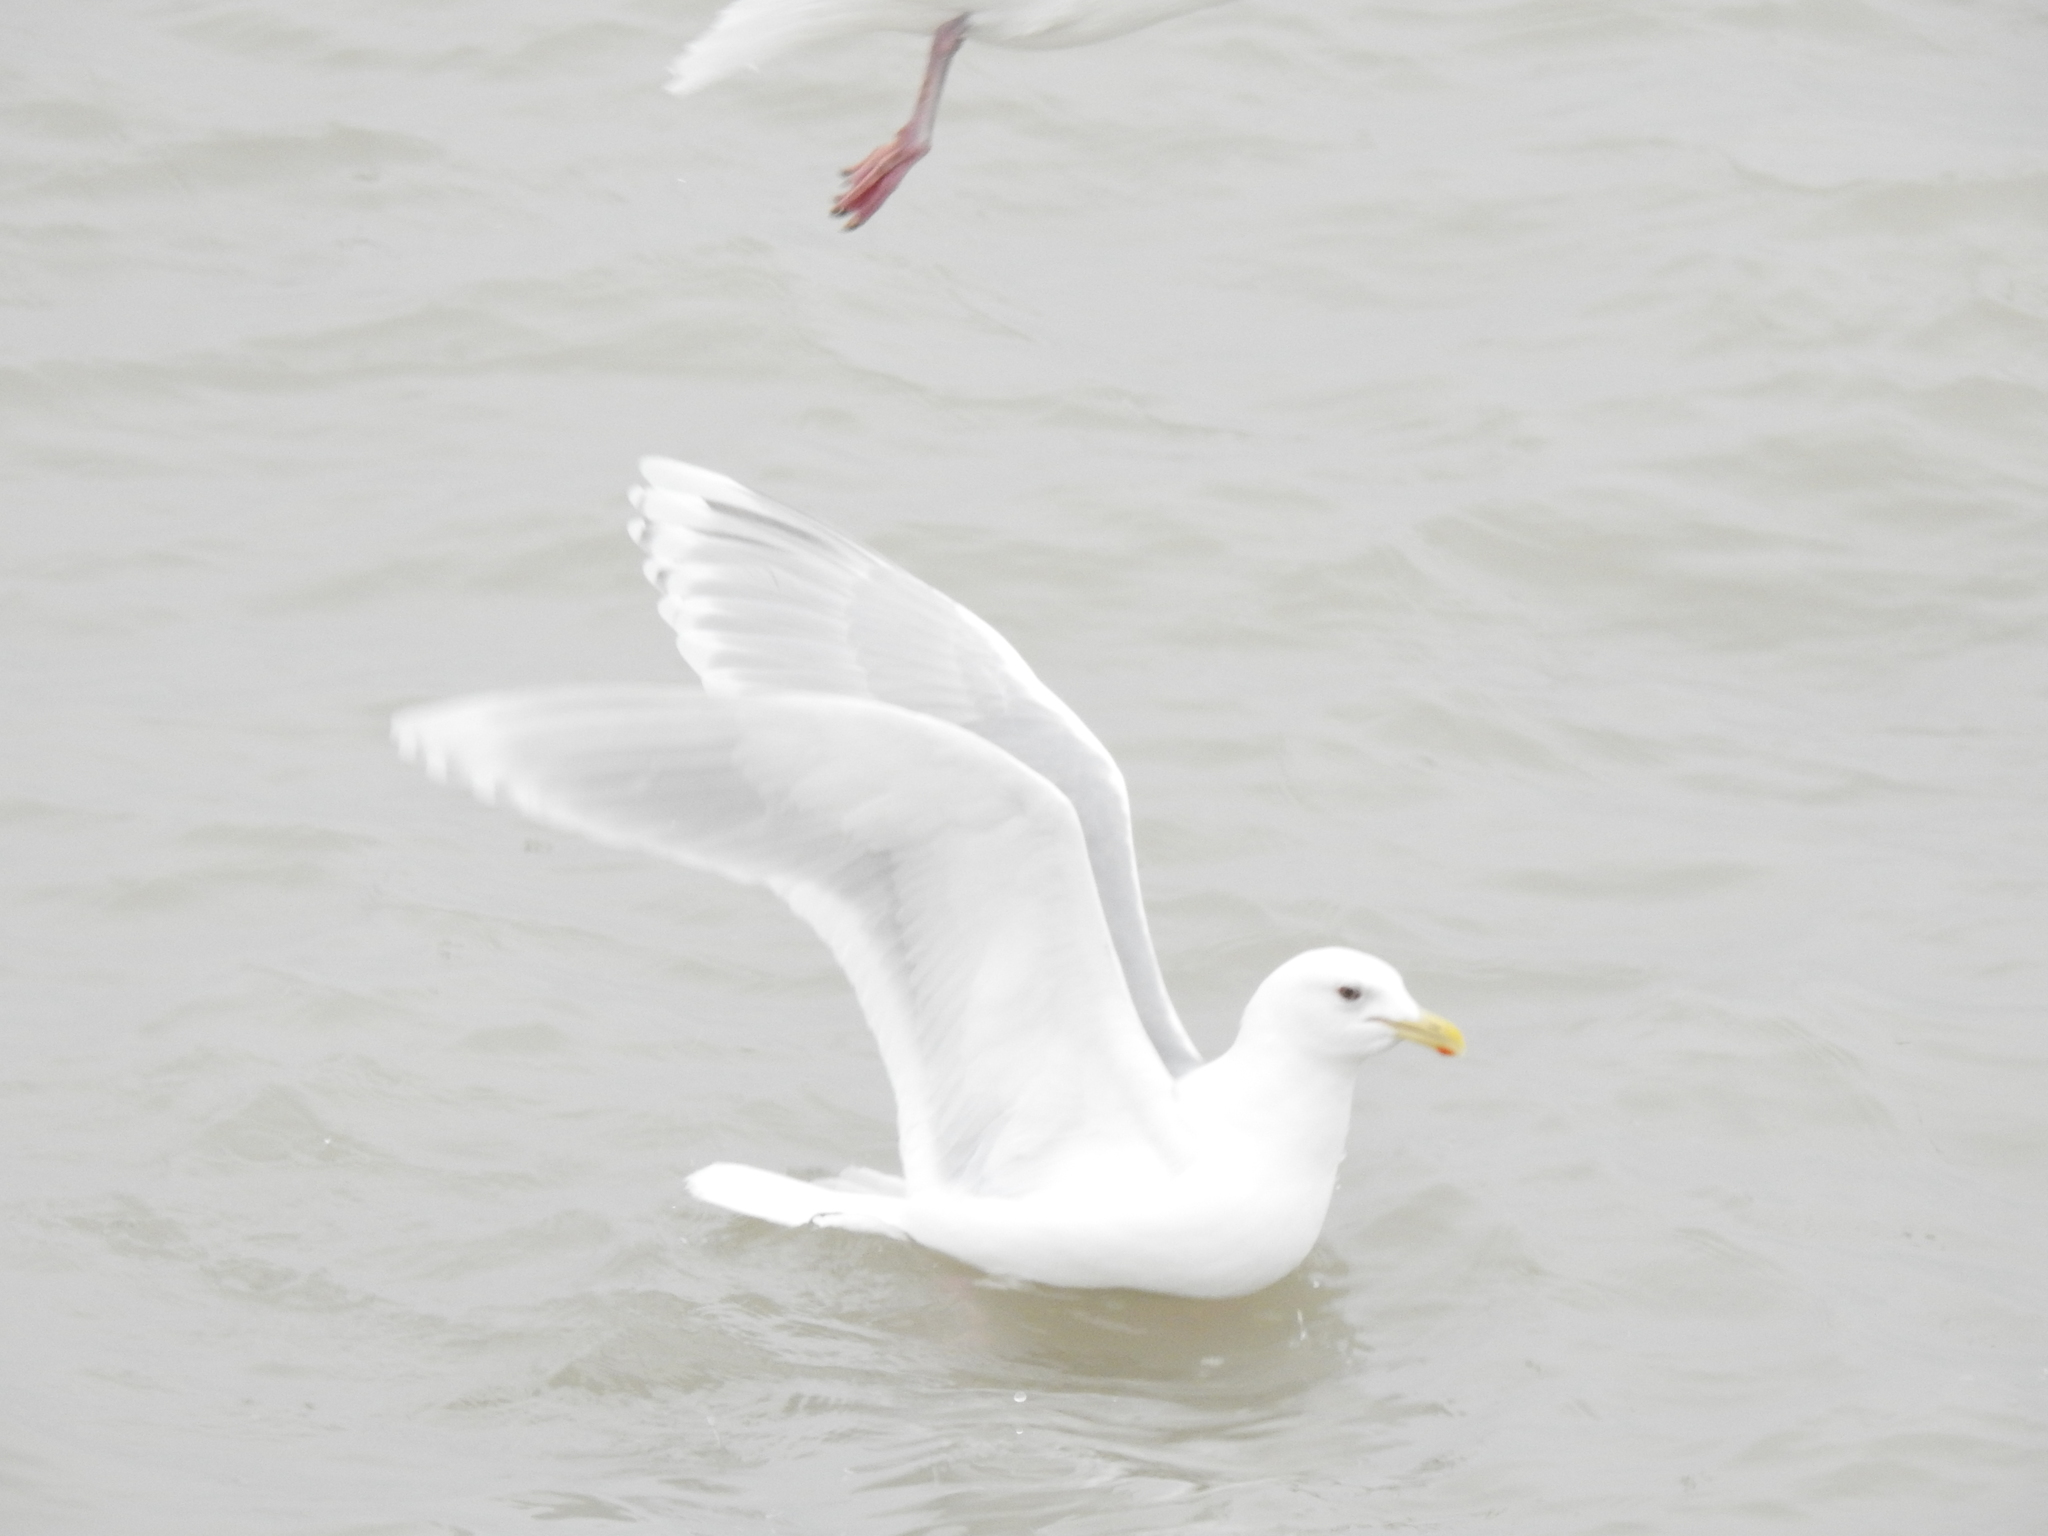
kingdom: Animalia
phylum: Chordata
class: Aves
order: Charadriiformes
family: Laridae
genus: Larus
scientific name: Larus glaucoides
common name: Iceland gull
